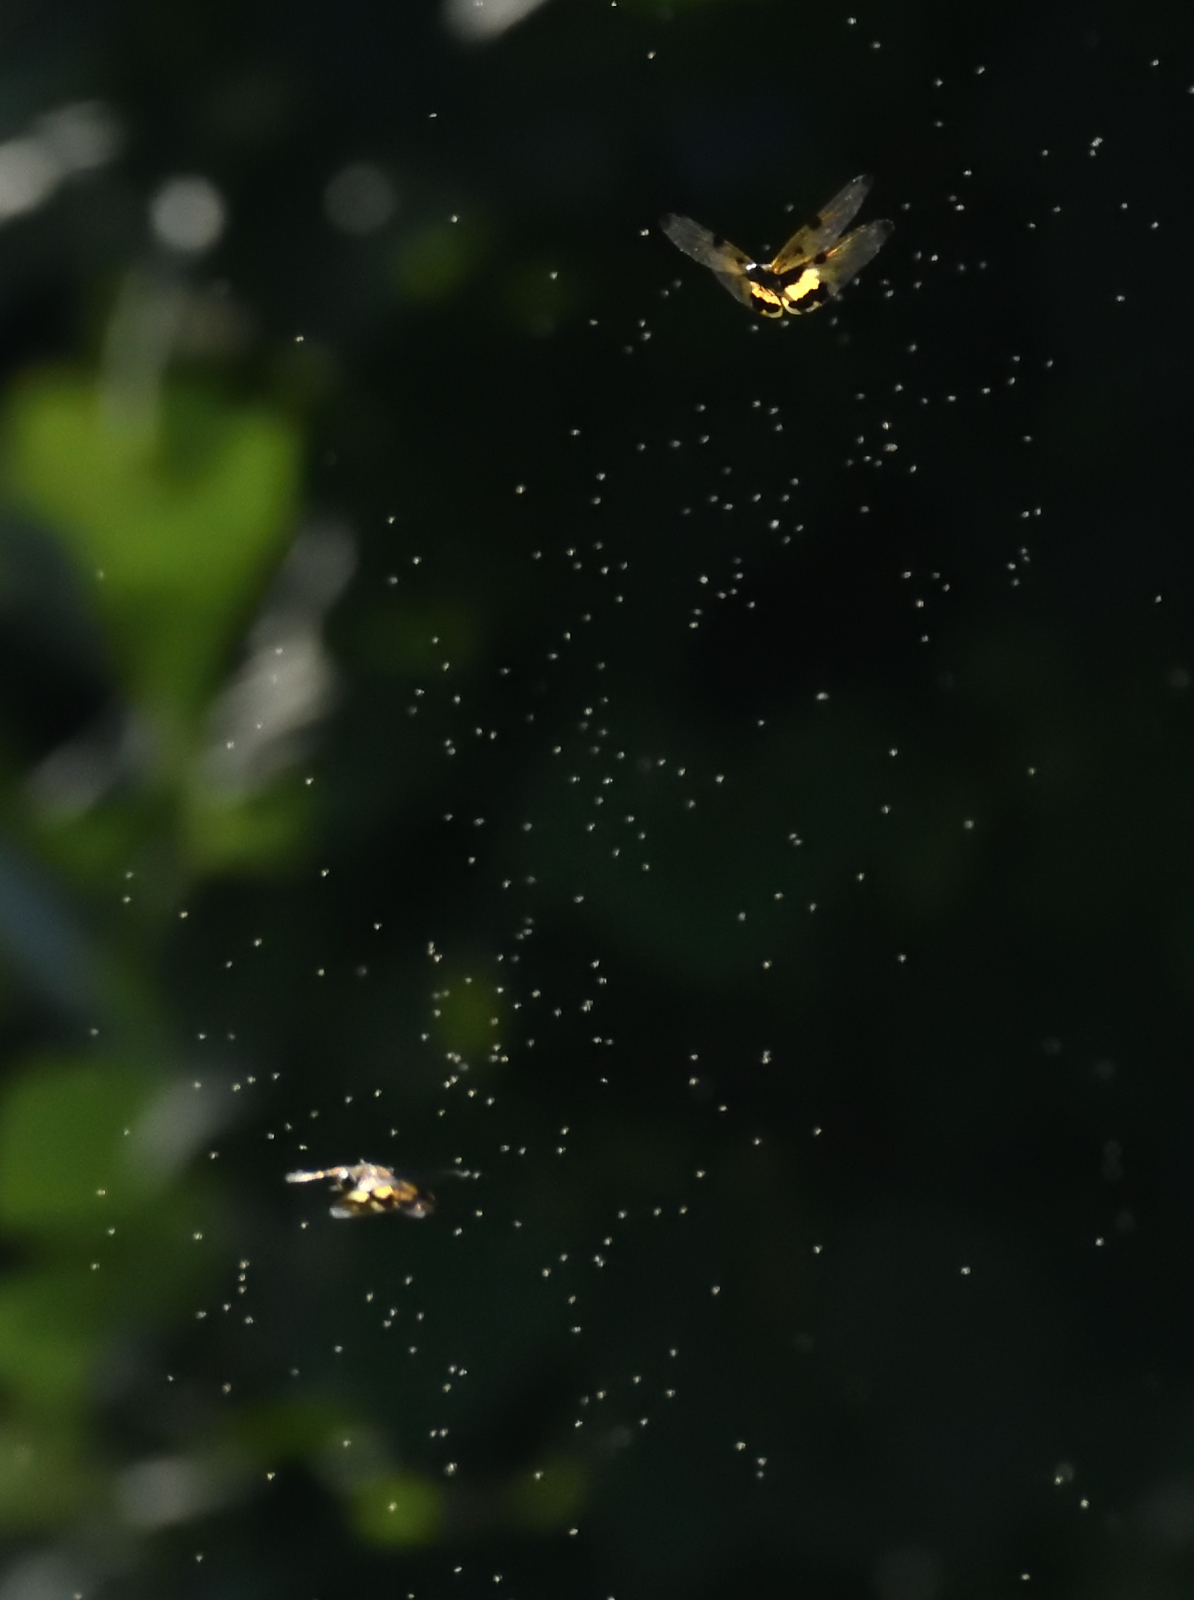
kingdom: Animalia
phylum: Arthropoda
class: Insecta
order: Odonata
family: Libellulidae
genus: Rhyothemis
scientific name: Rhyothemis variegata
